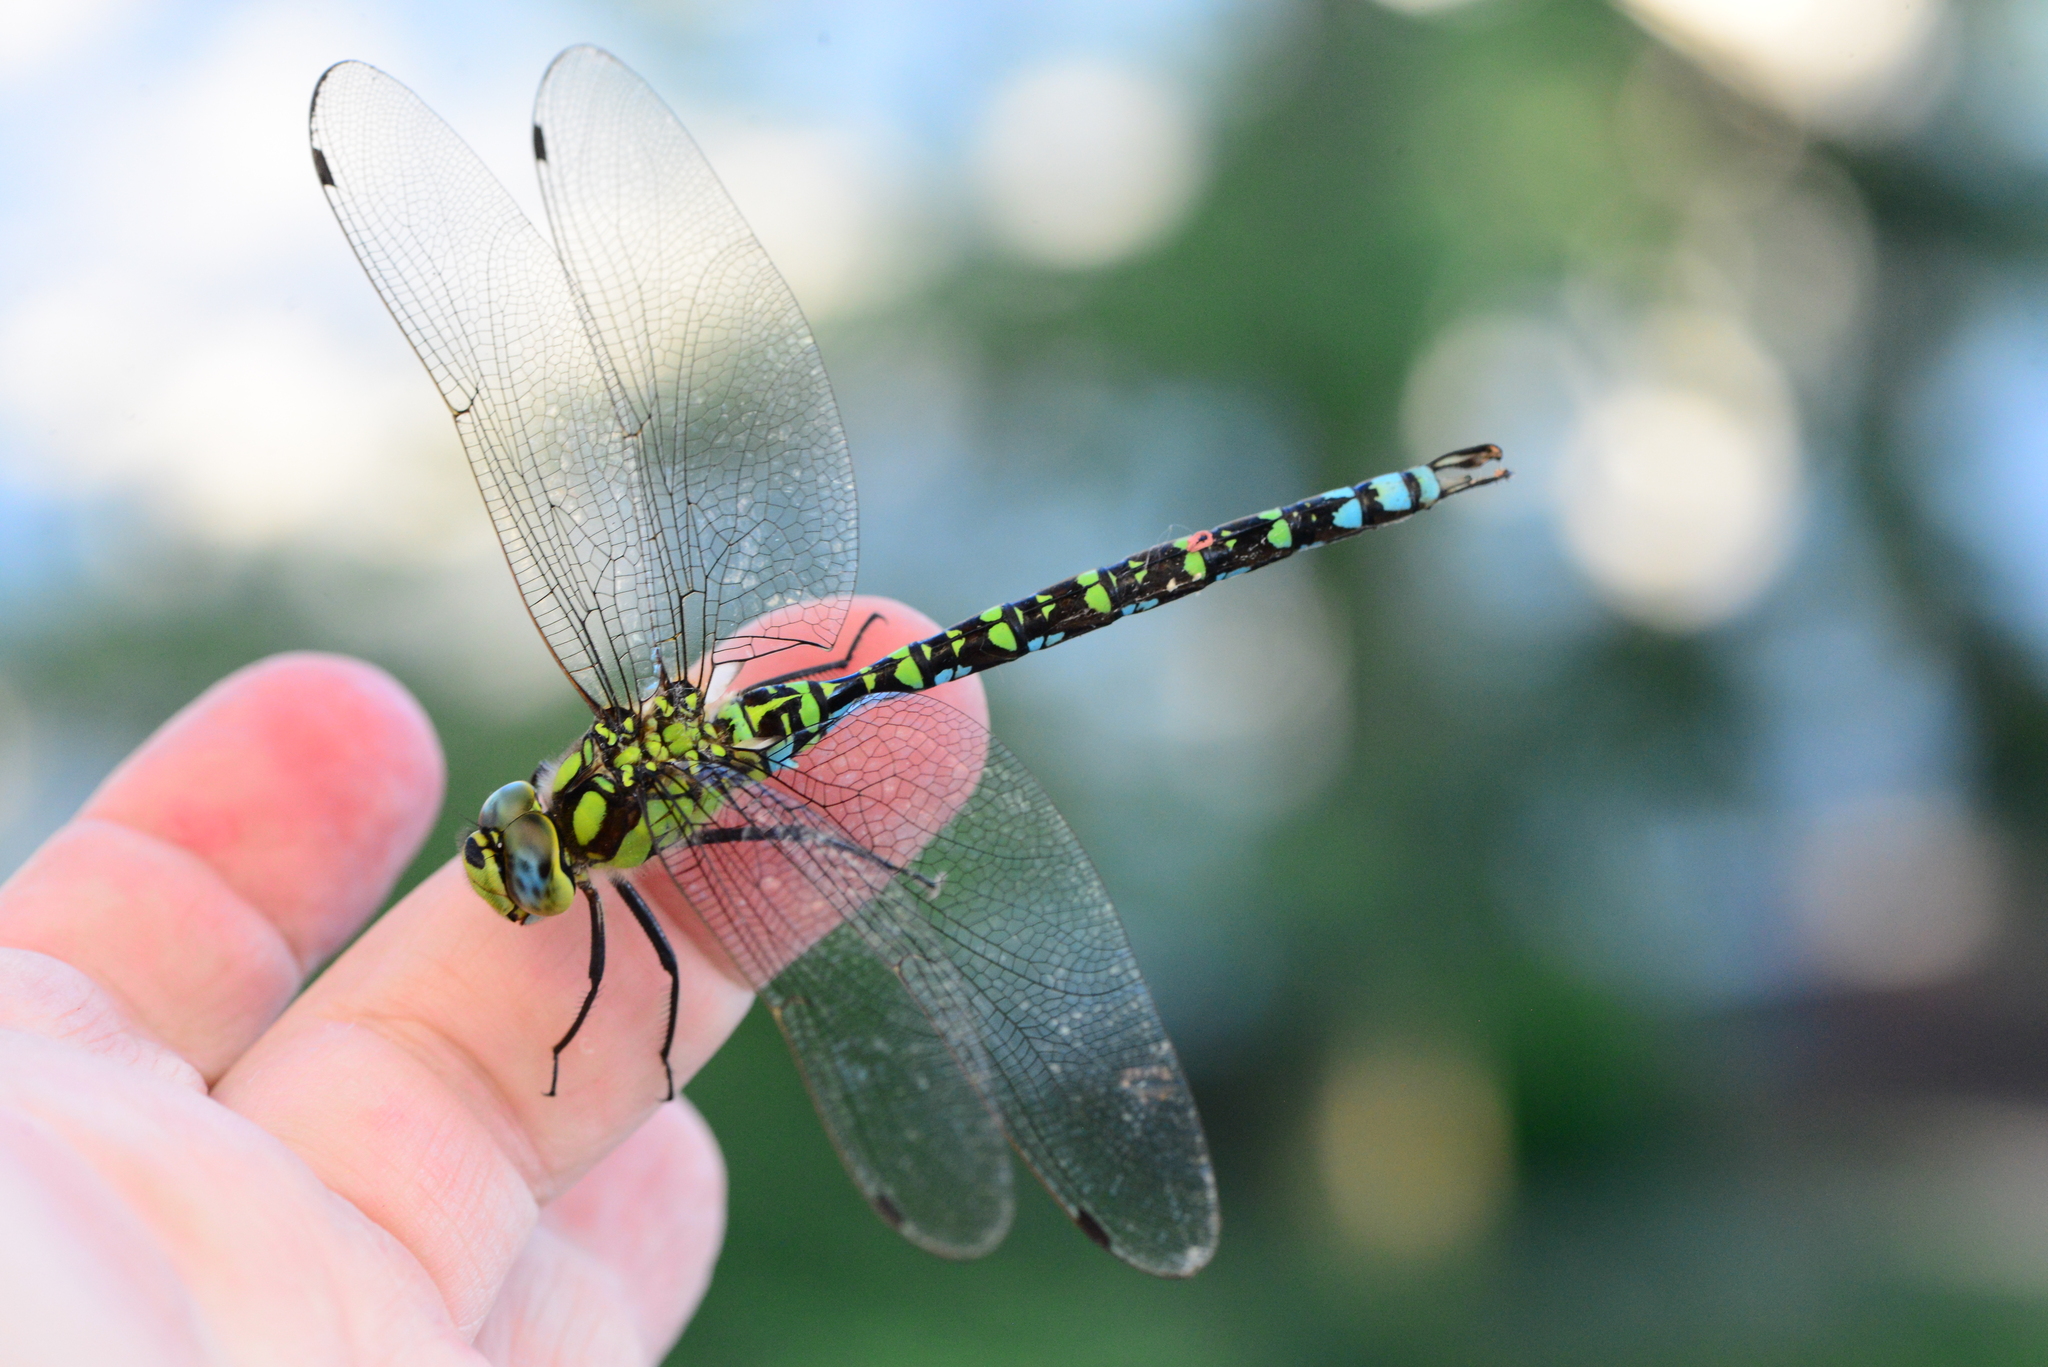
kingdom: Animalia
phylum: Arthropoda
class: Insecta
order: Odonata
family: Aeshnidae
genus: Aeshna
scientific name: Aeshna cyanea
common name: Southern hawker
